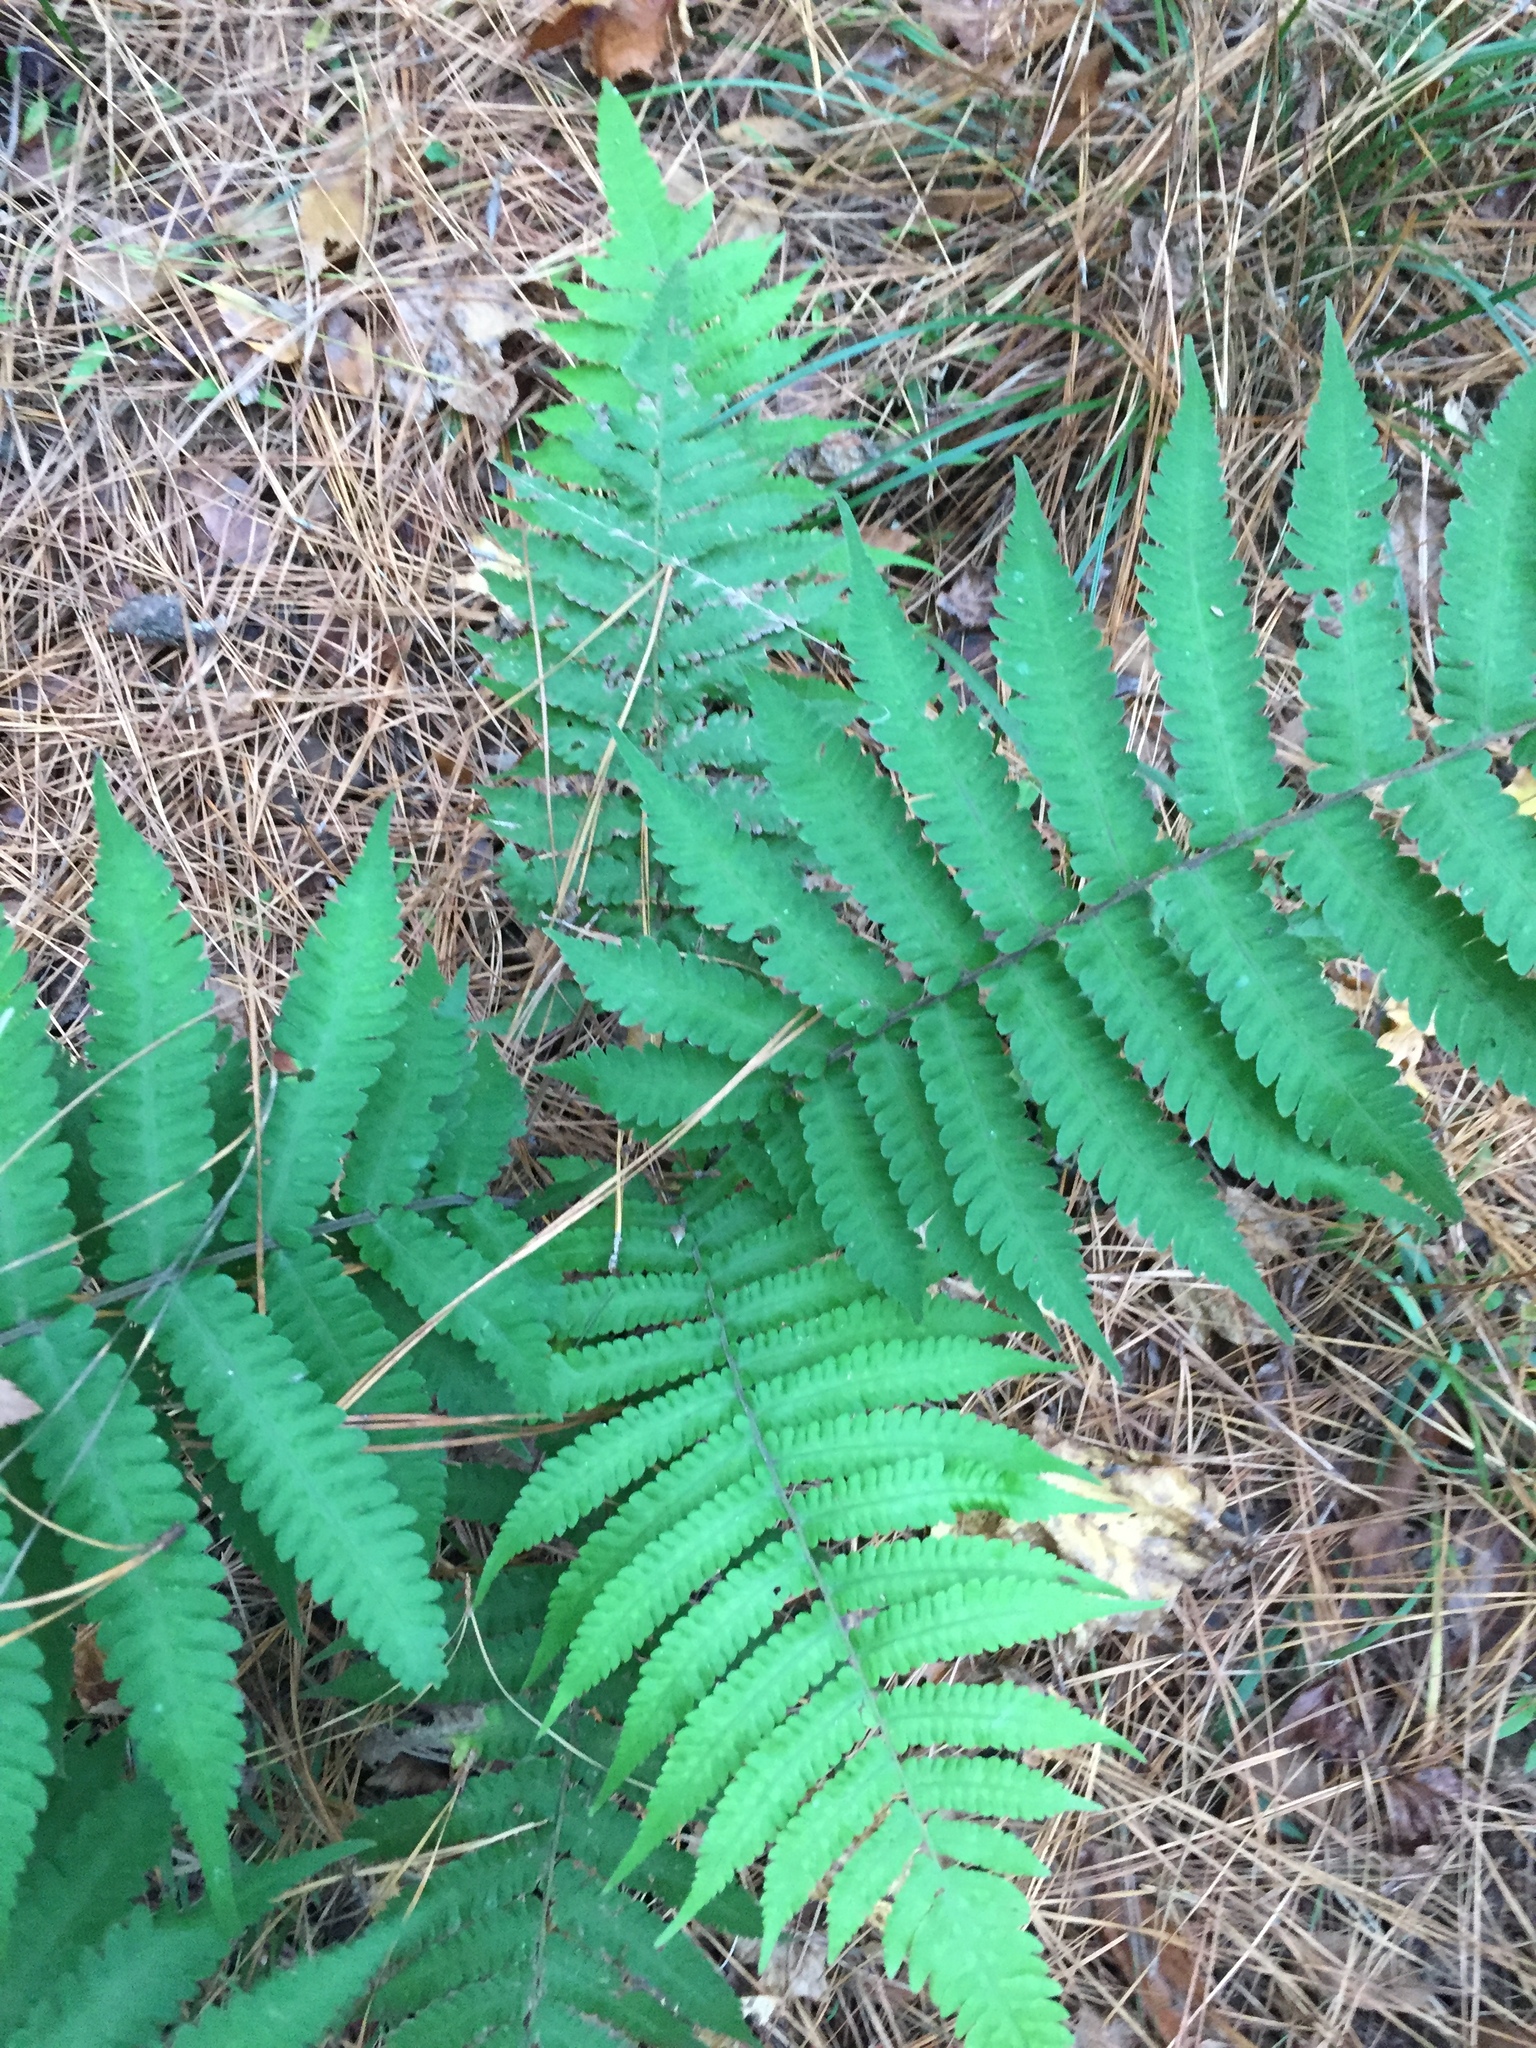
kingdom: Plantae
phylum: Tracheophyta
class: Polypodiopsida
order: Polypodiales
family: Athyriaceae
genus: Deparia
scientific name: Deparia petersenii
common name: Japanese false spleenwort
